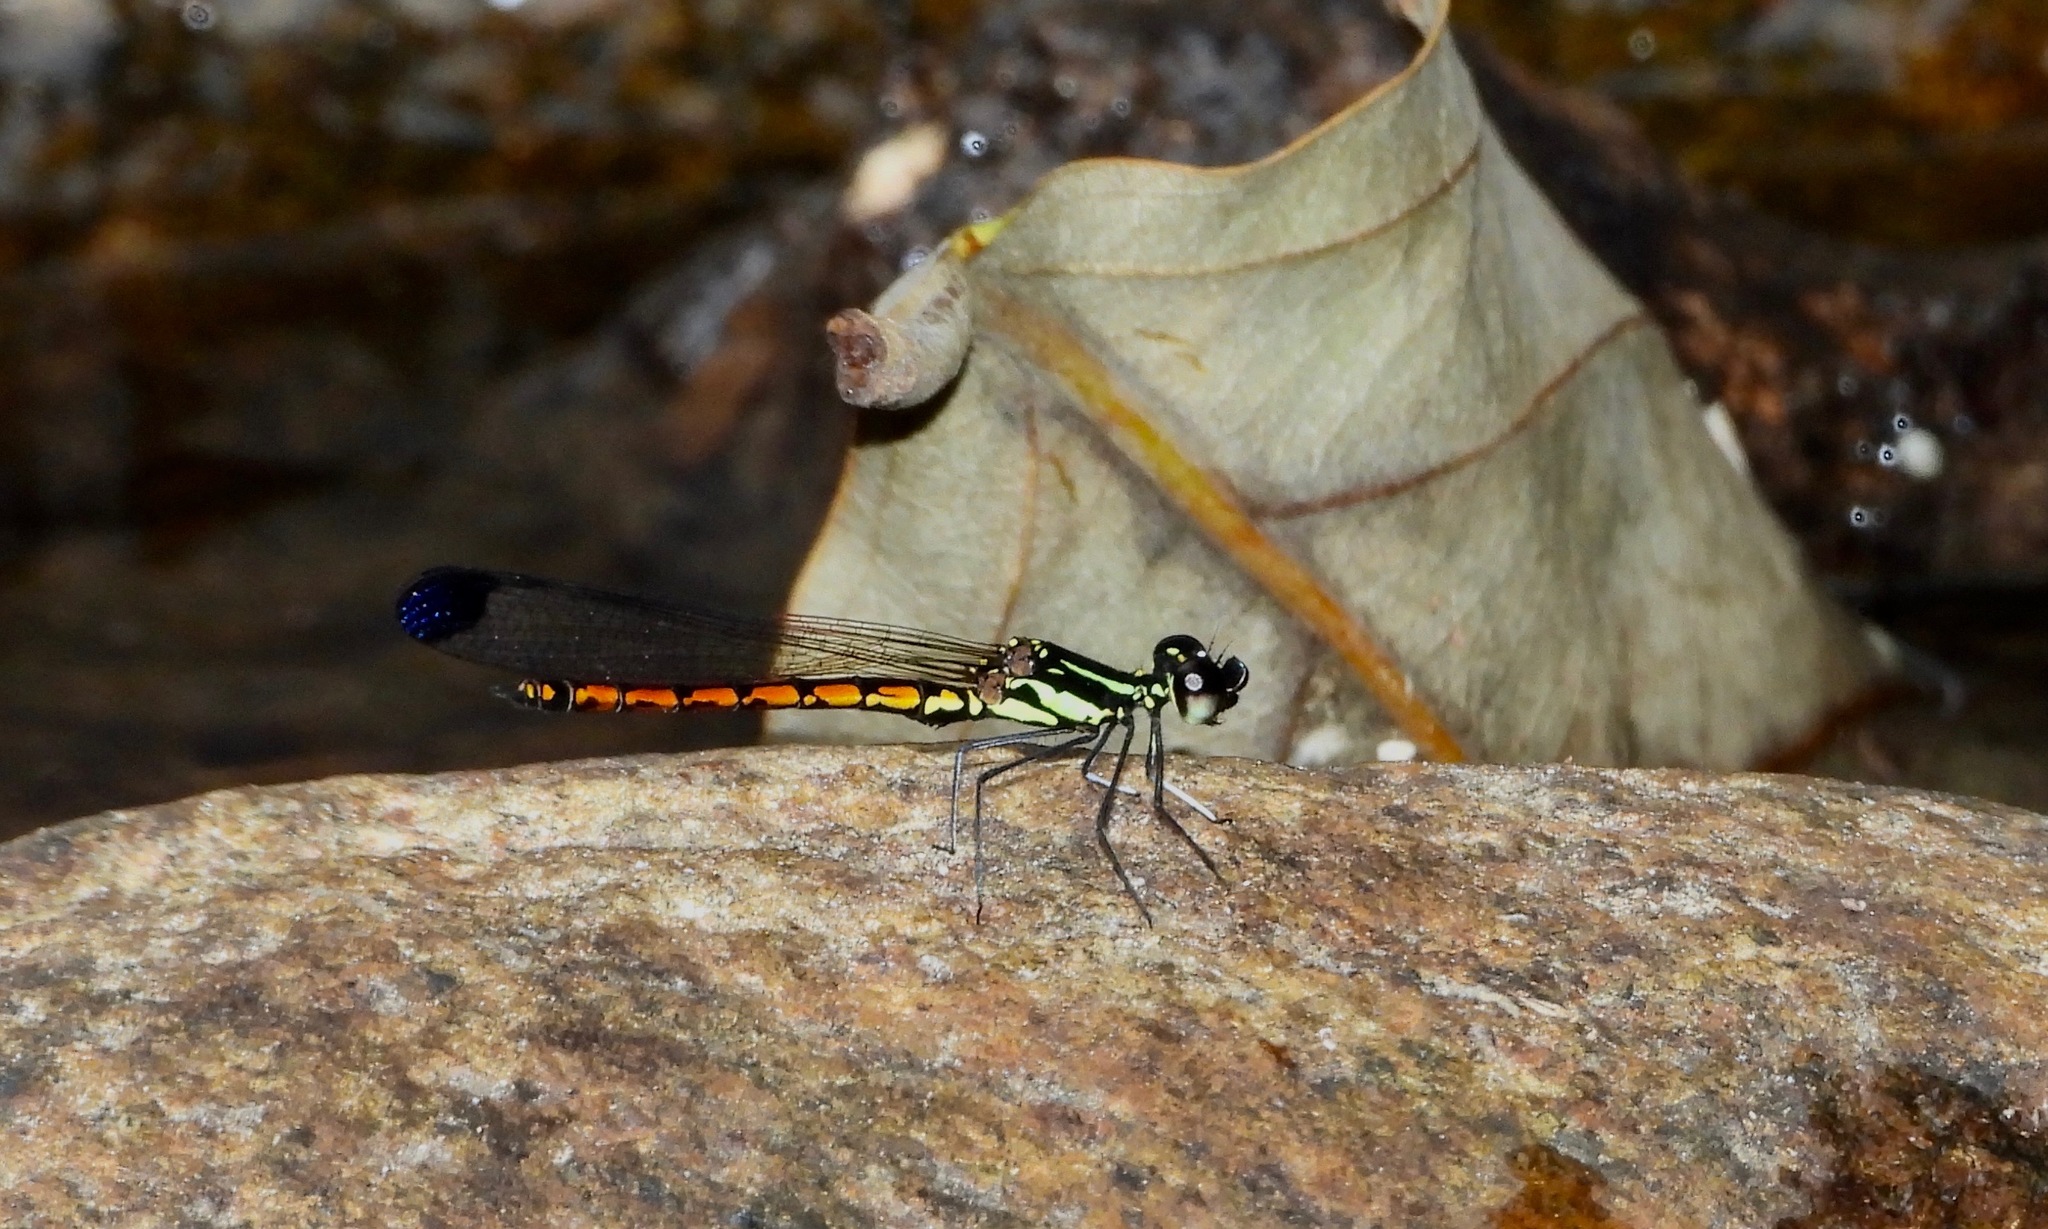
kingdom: Animalia
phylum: Arthropoda
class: Insecta
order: Odonata
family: Chlorocyphidae
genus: Libellago
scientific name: Libellago greeni
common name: Green’s gem
